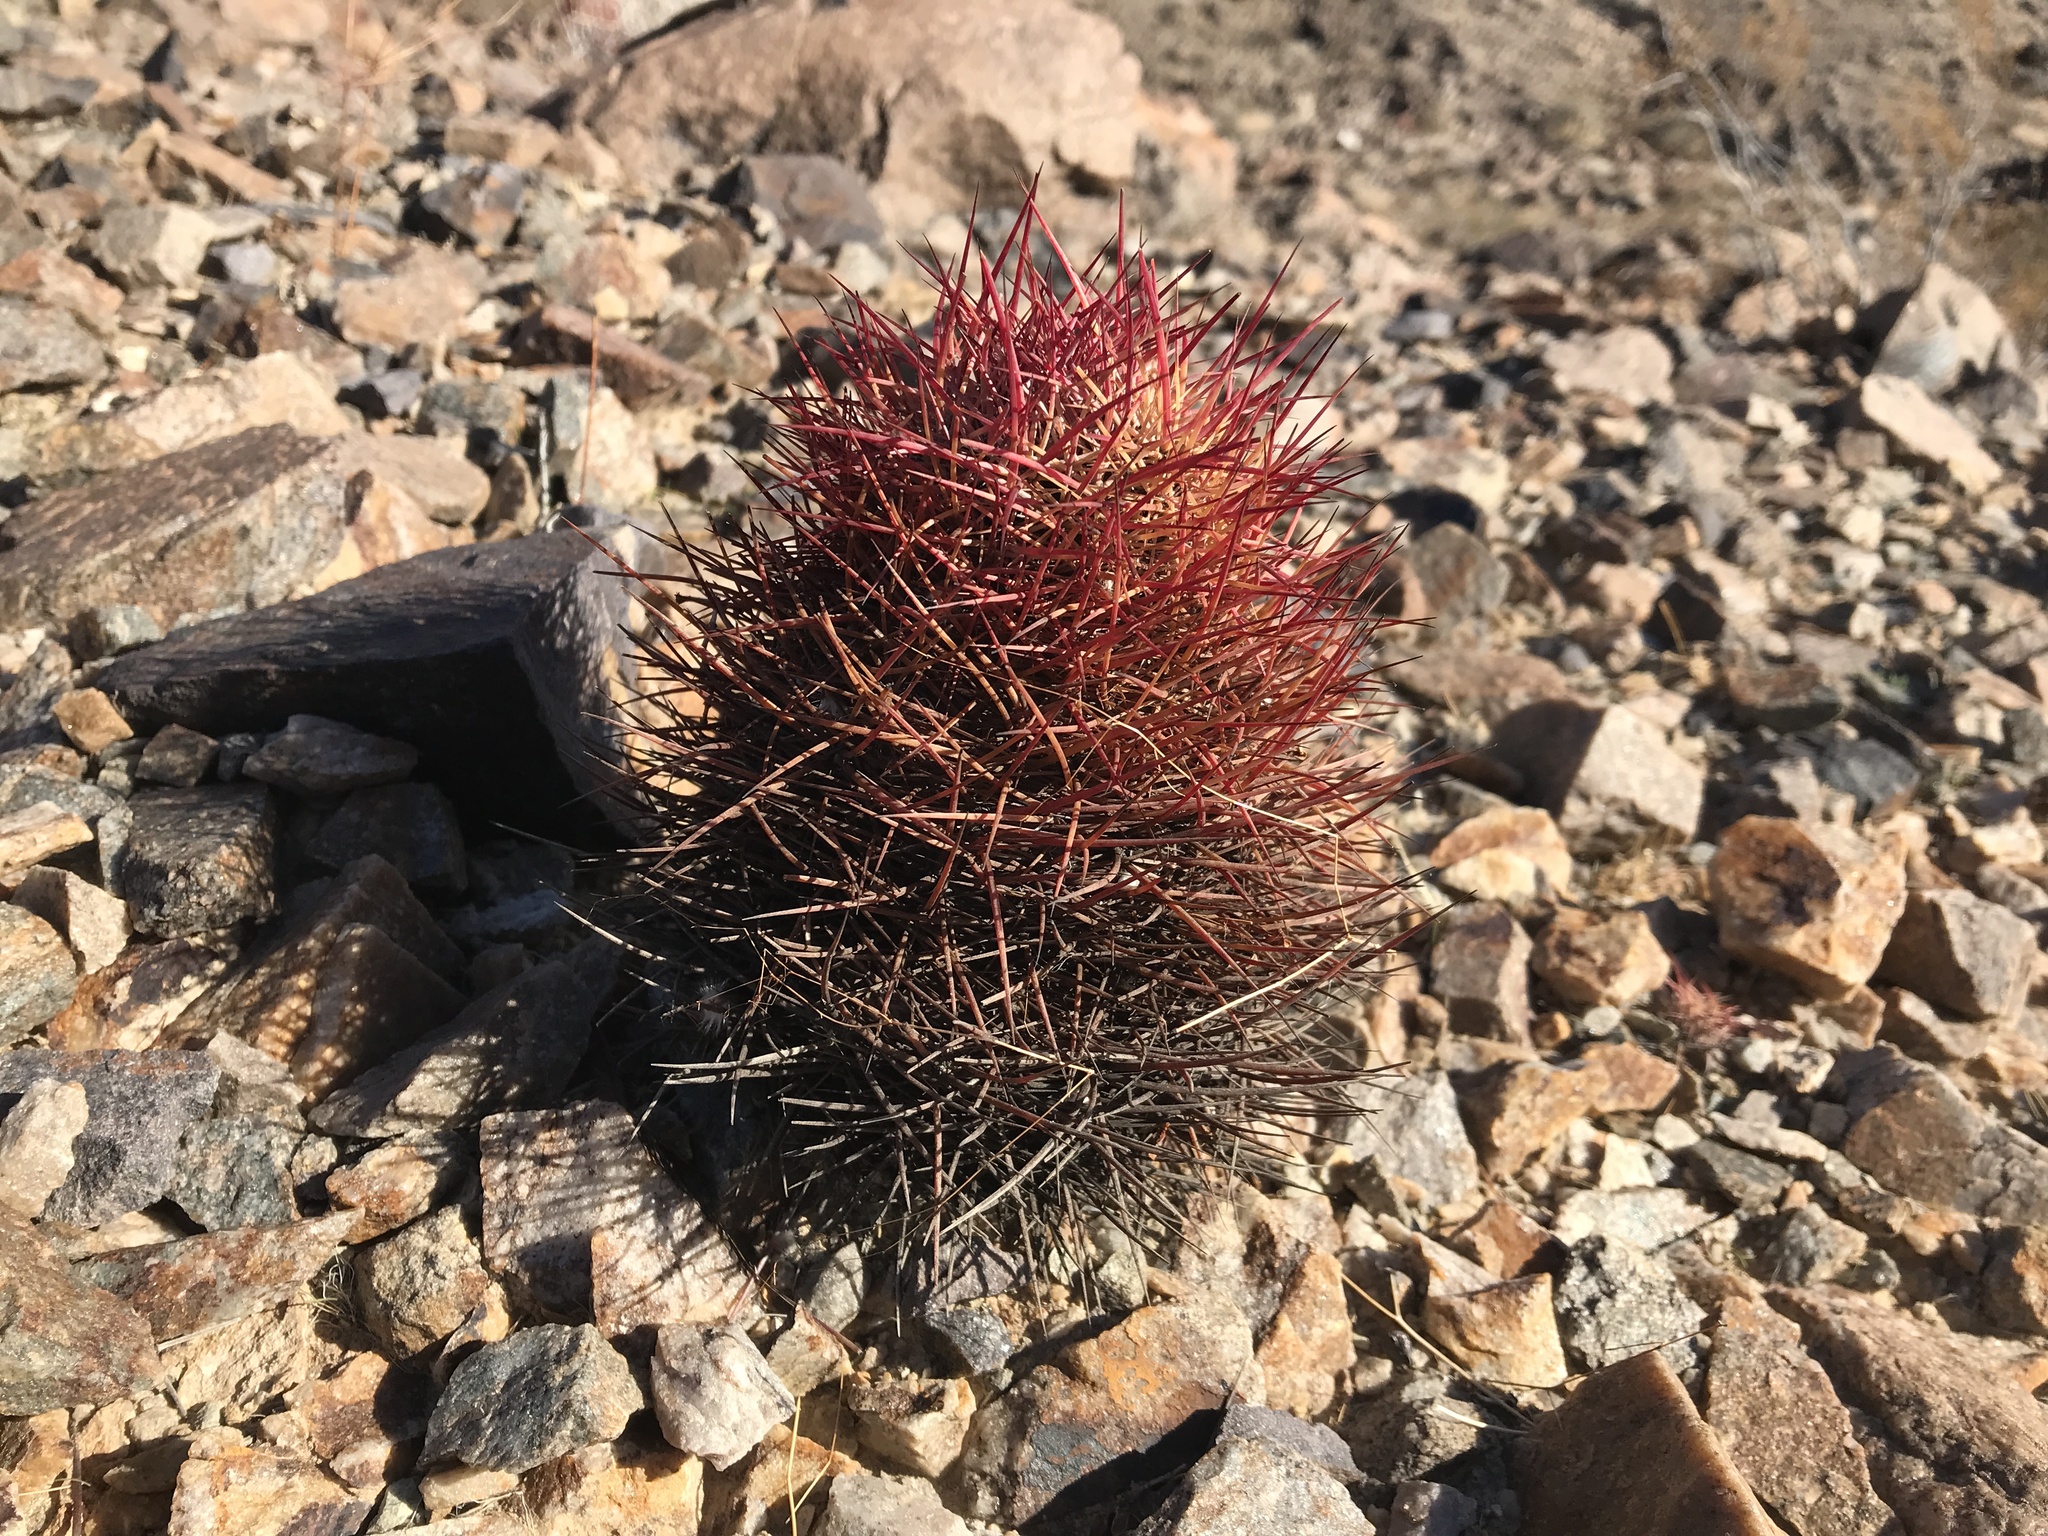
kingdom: Plantae
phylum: Tracheophyta
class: Magnoliopsida
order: Caryophyllales
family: Cactaceae
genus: Sclerocactus
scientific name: Sclerocactus johnsonii
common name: Eight-spine fishhook cactus
